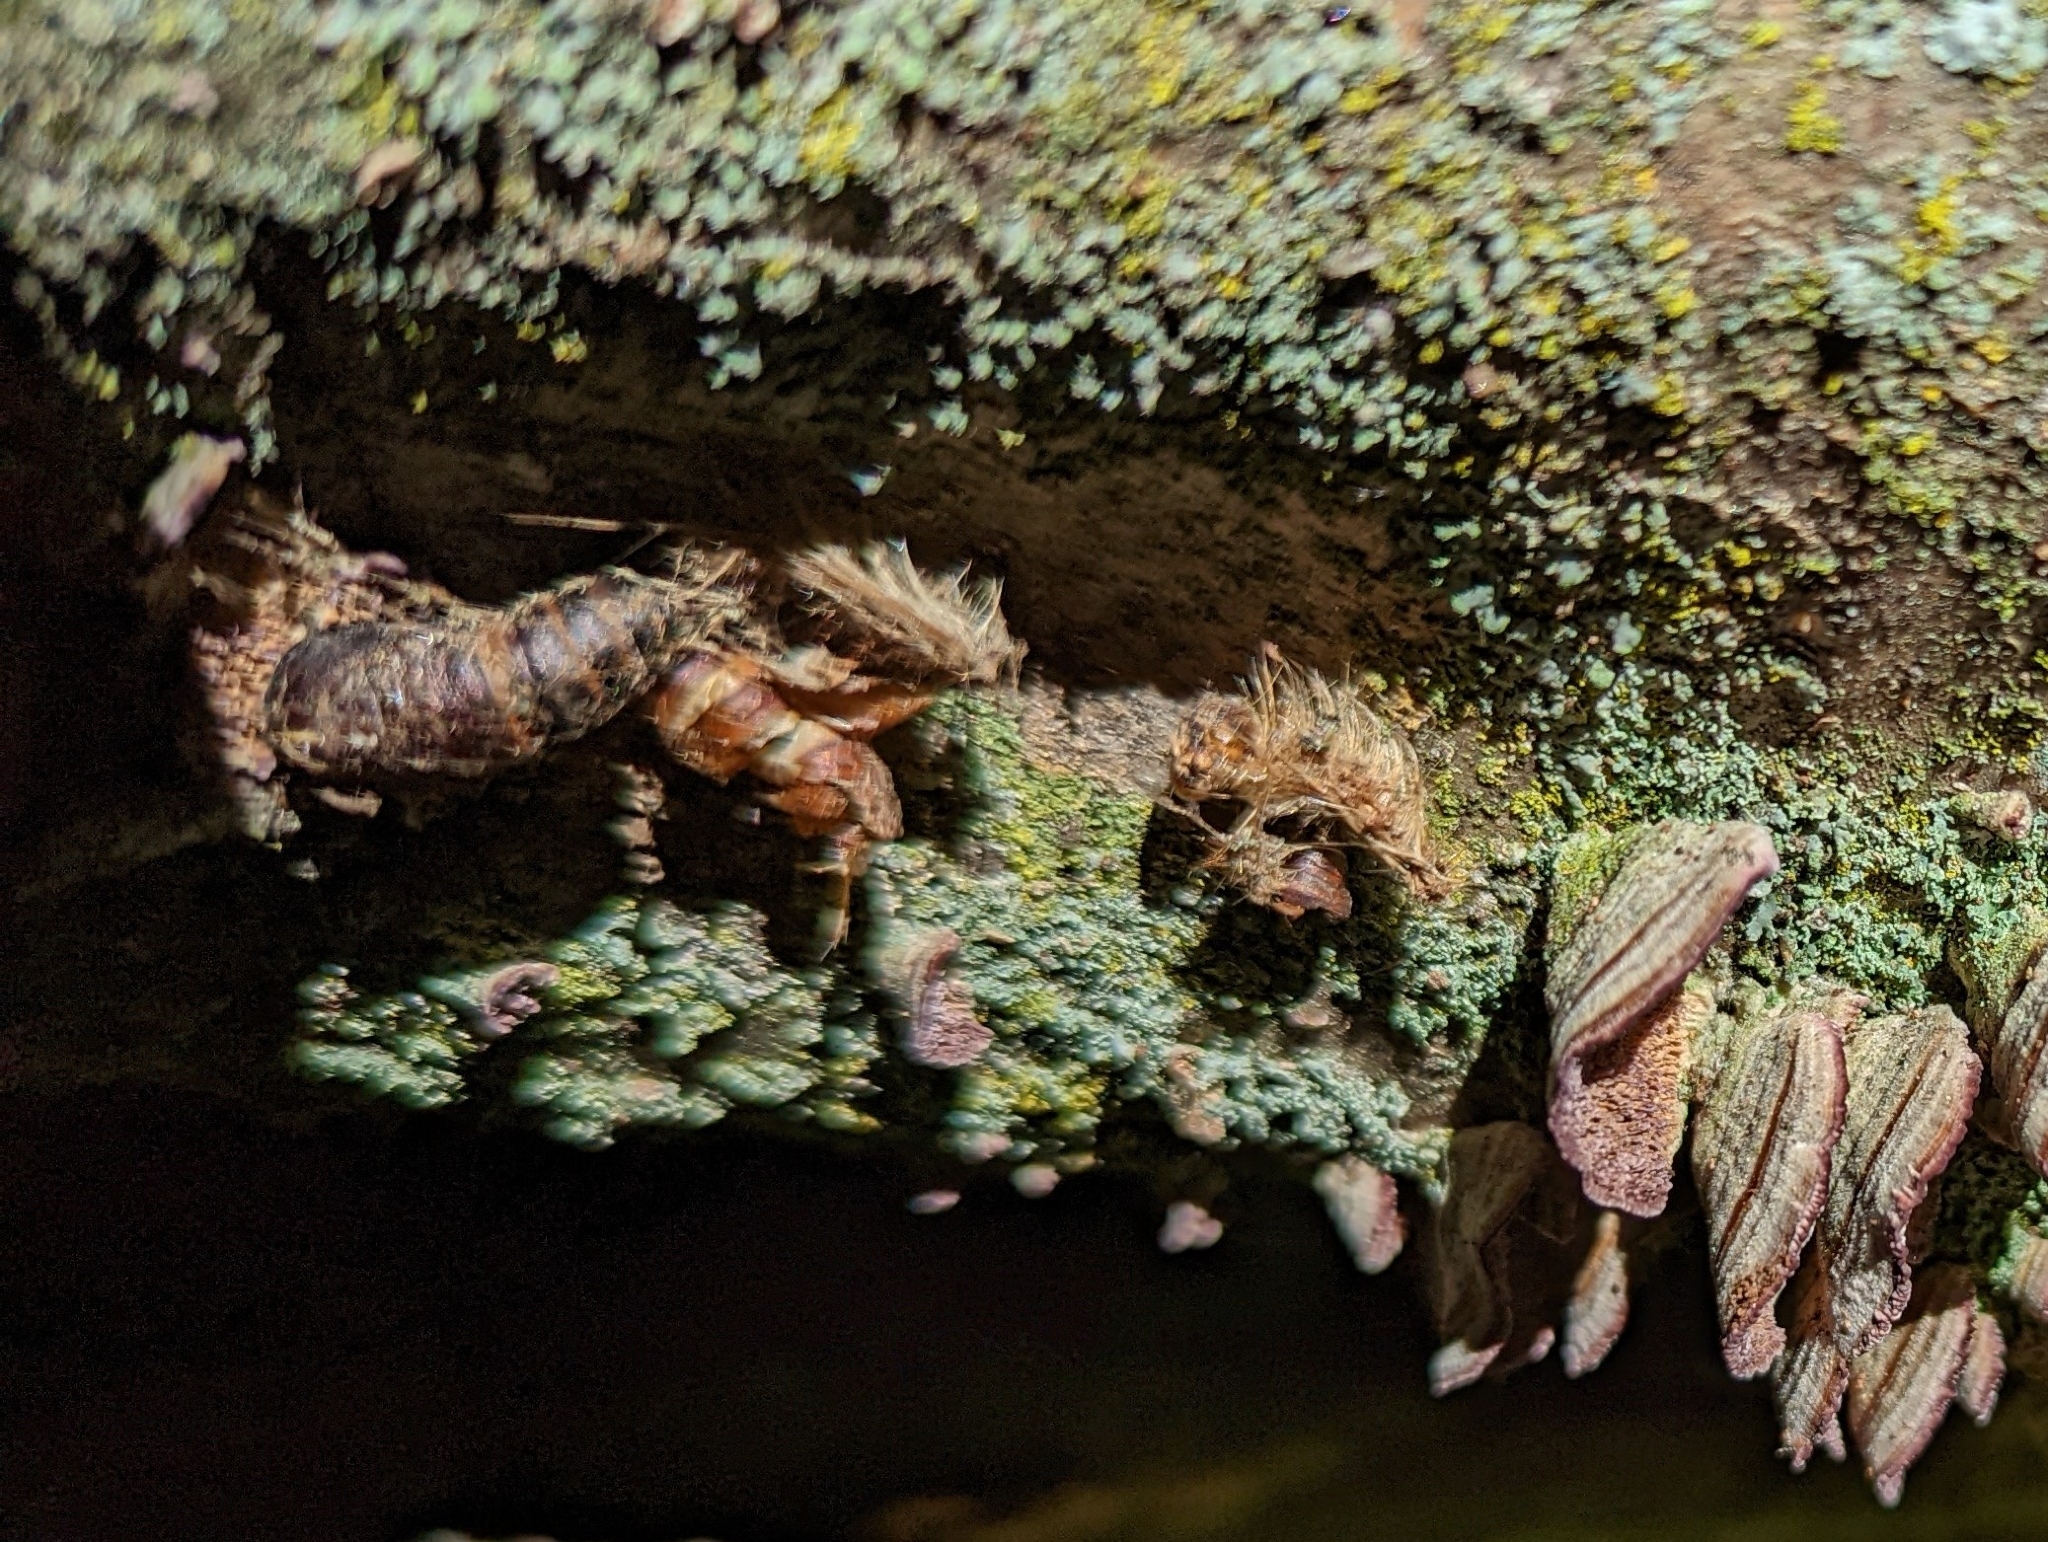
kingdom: Animalia
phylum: Arthropoda
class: Insecta
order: Lepidoptera
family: Erebidae
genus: Lymantria
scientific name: Lymantria dispar
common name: Gypsy moth
